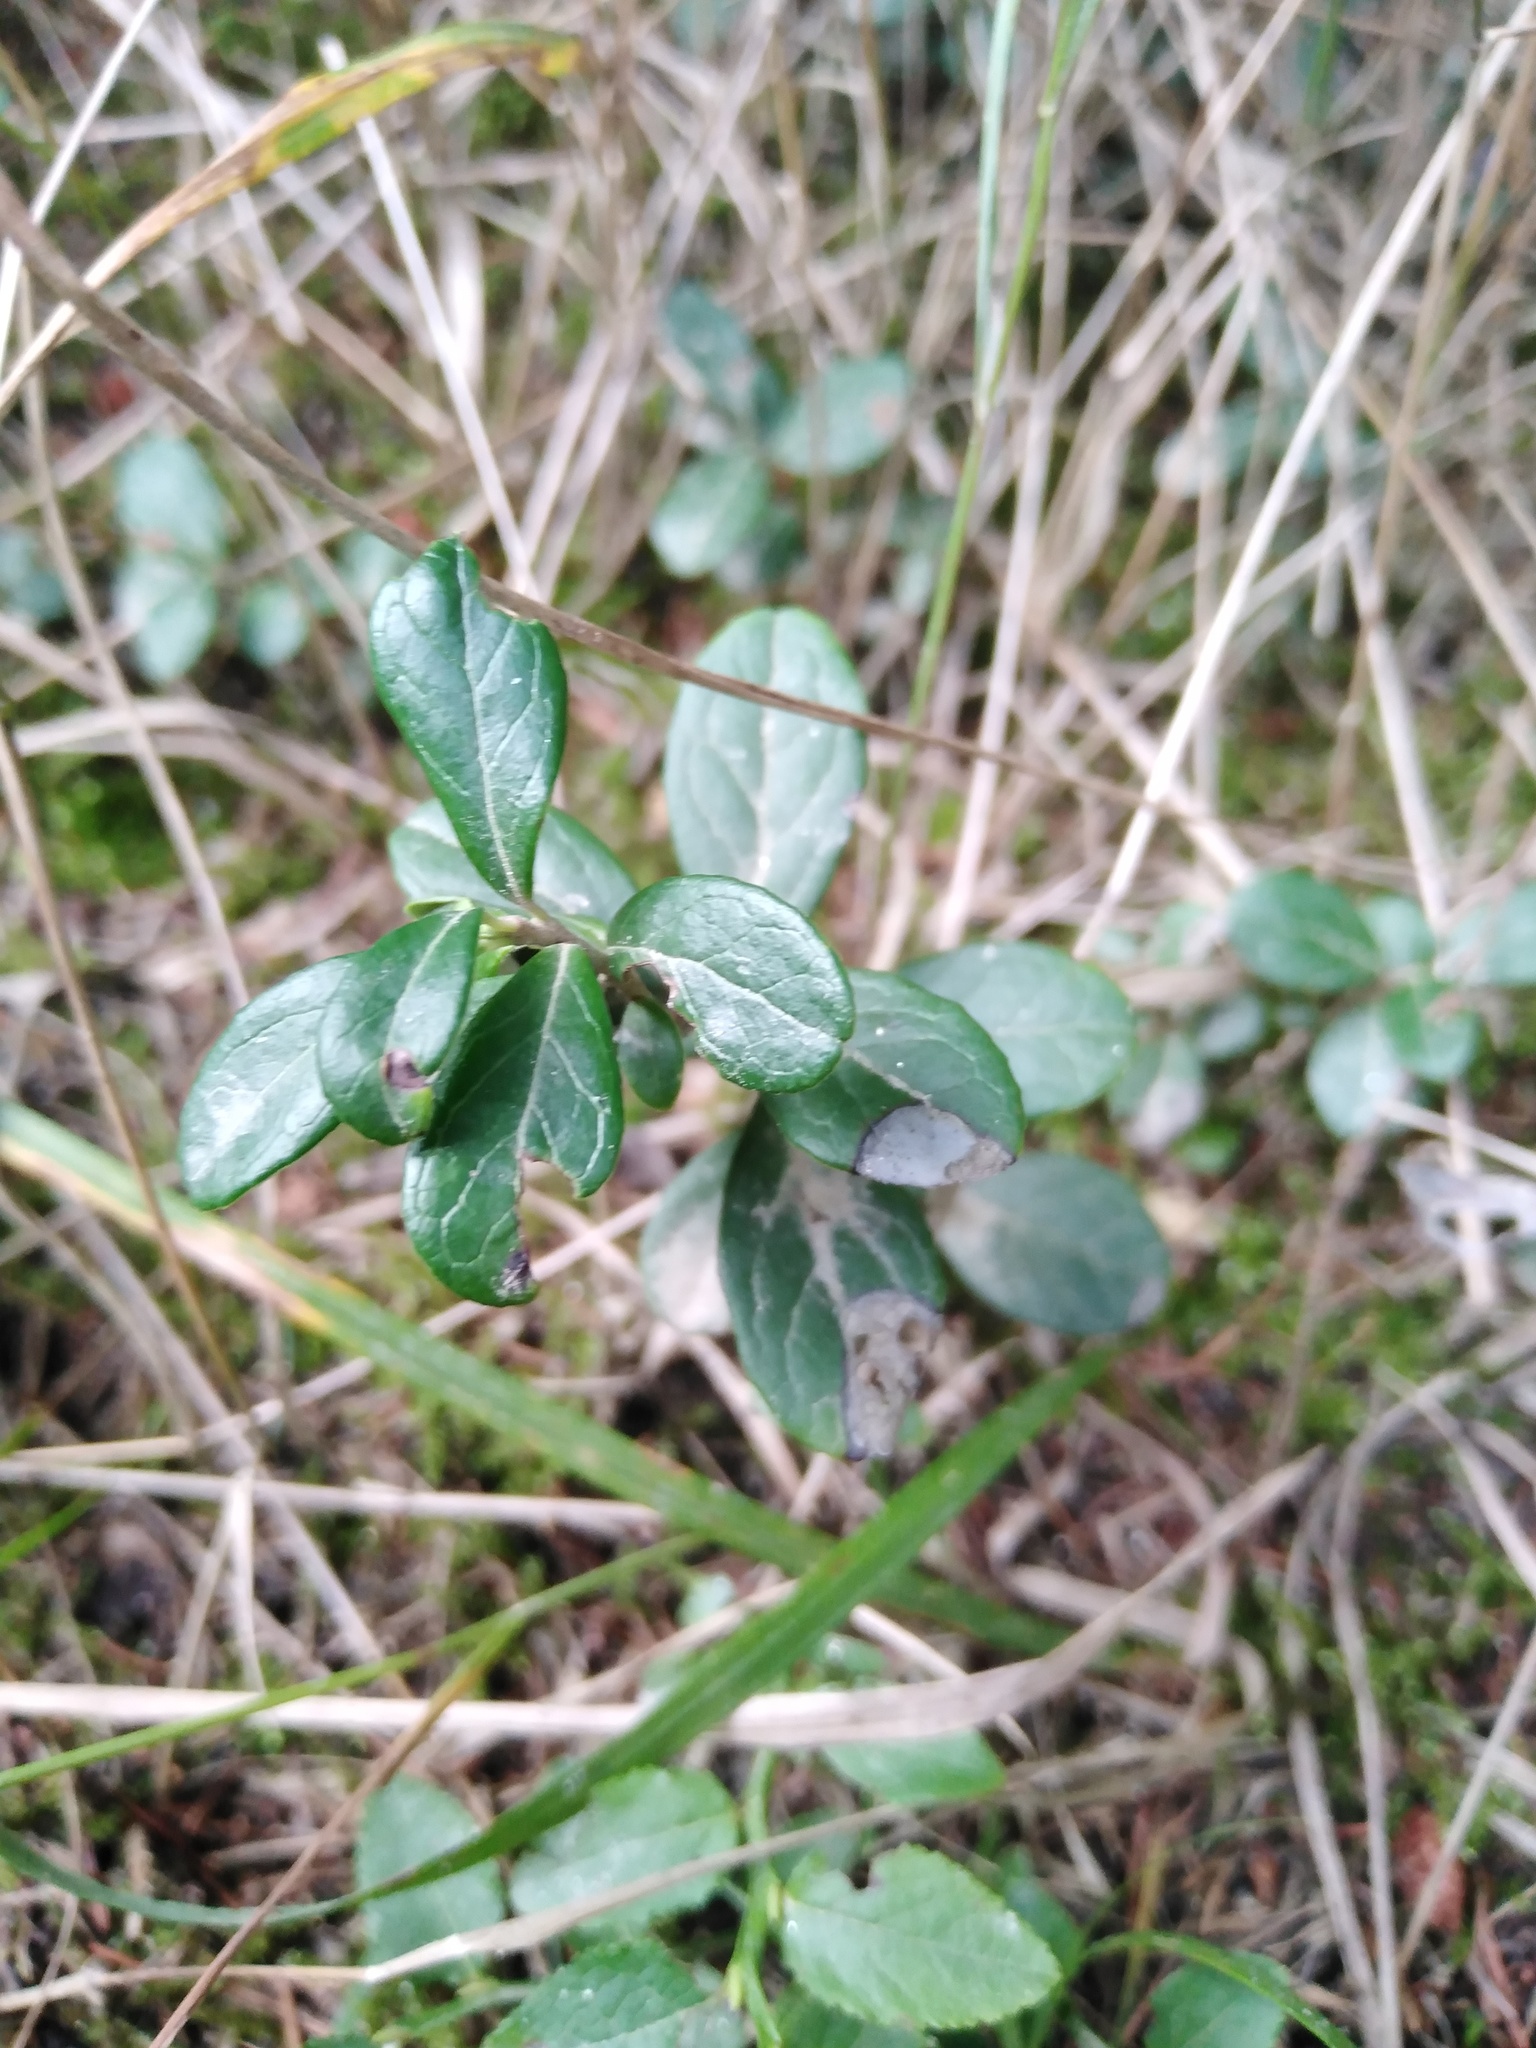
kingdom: Plantae
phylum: Tracheophyta
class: Magnoliopsida
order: Ericales
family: Ericaceae
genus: Vaccinium
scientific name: Vaccinium vitis-idaea
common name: Cowberry
